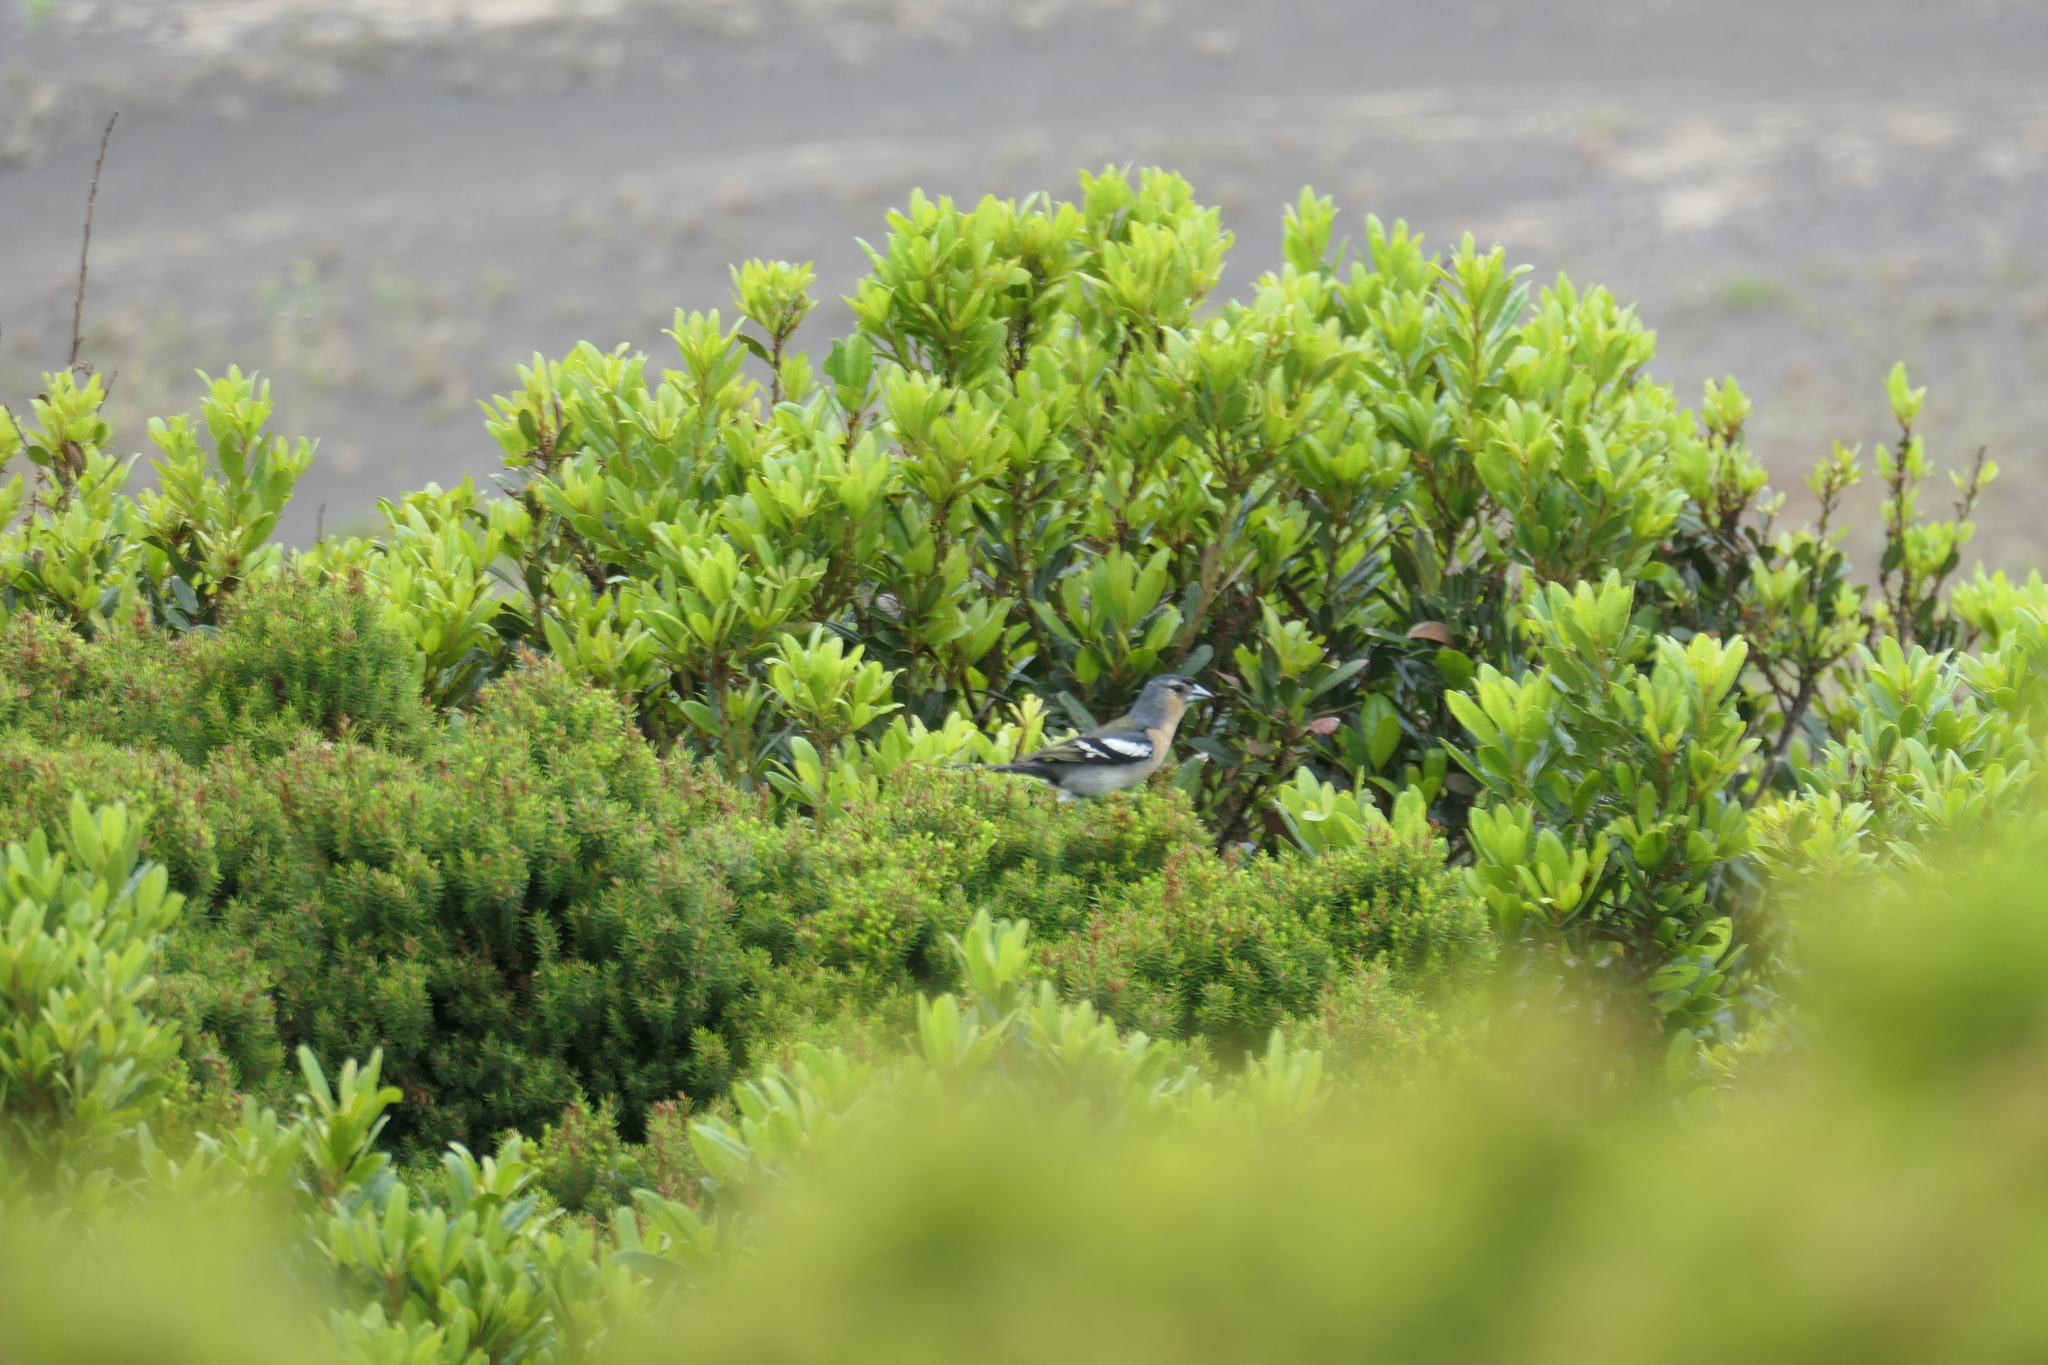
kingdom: Animalia
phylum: Chordata
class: Aves
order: Passeriformes
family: Fringillidae
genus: Fringilla
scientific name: Fringilla moreletti
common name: Azores chaffinch
